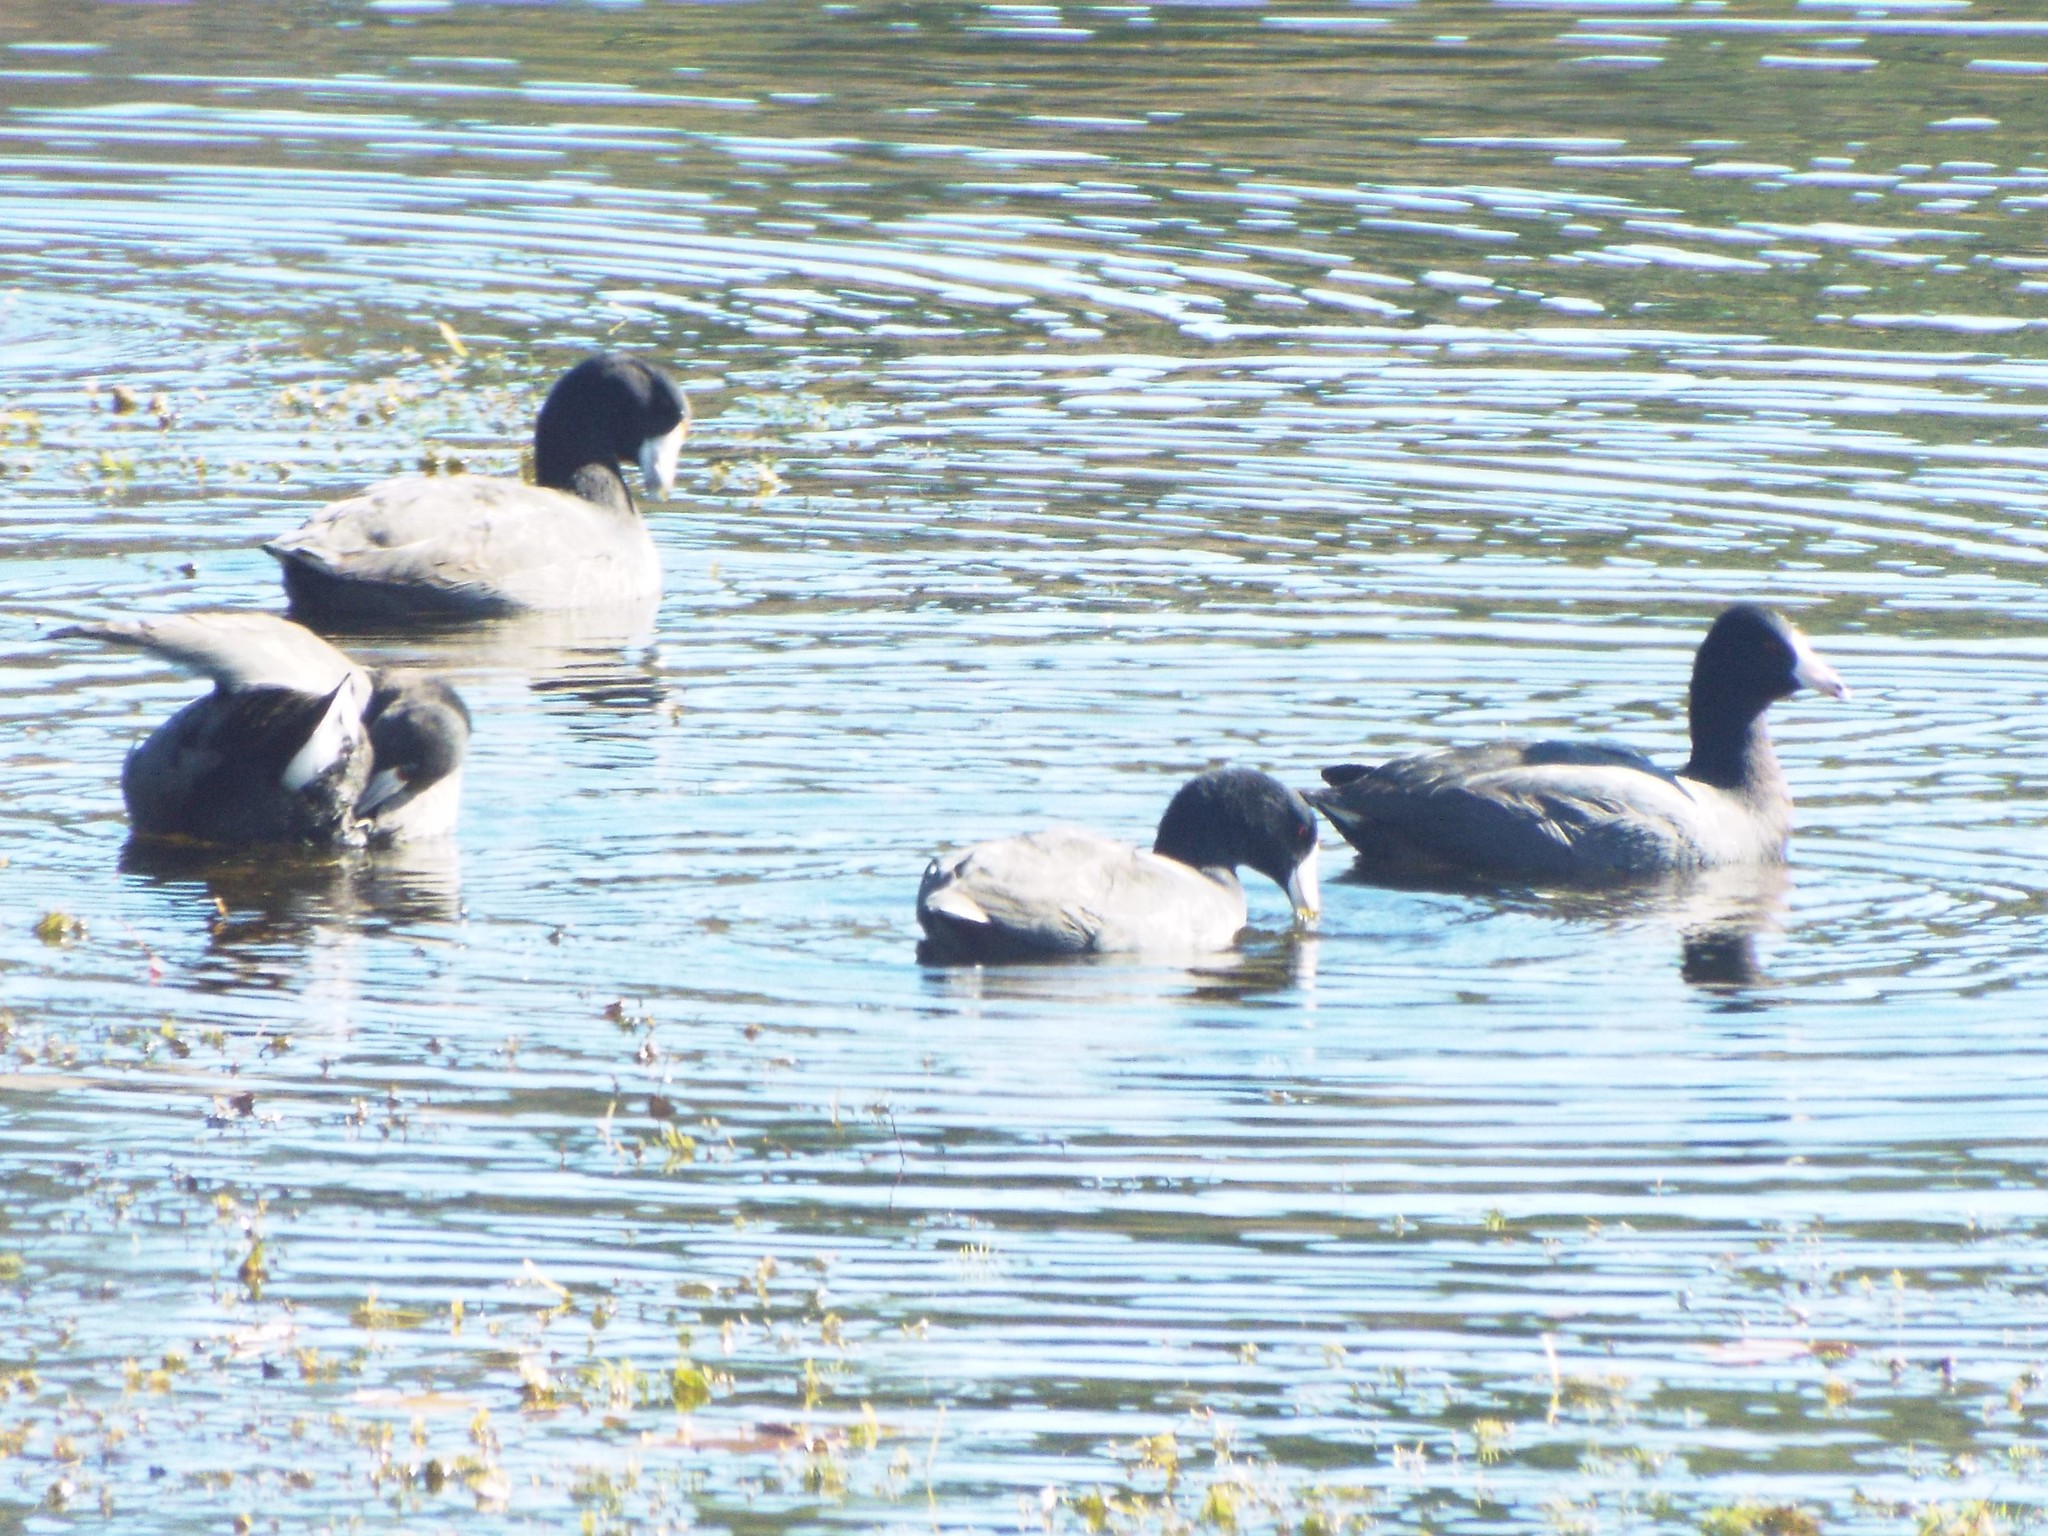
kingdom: Animalia
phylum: Chordata
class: Aves
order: Gruiformes
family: Rallidae
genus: Fulica
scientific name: Fulica americana
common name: American coot
